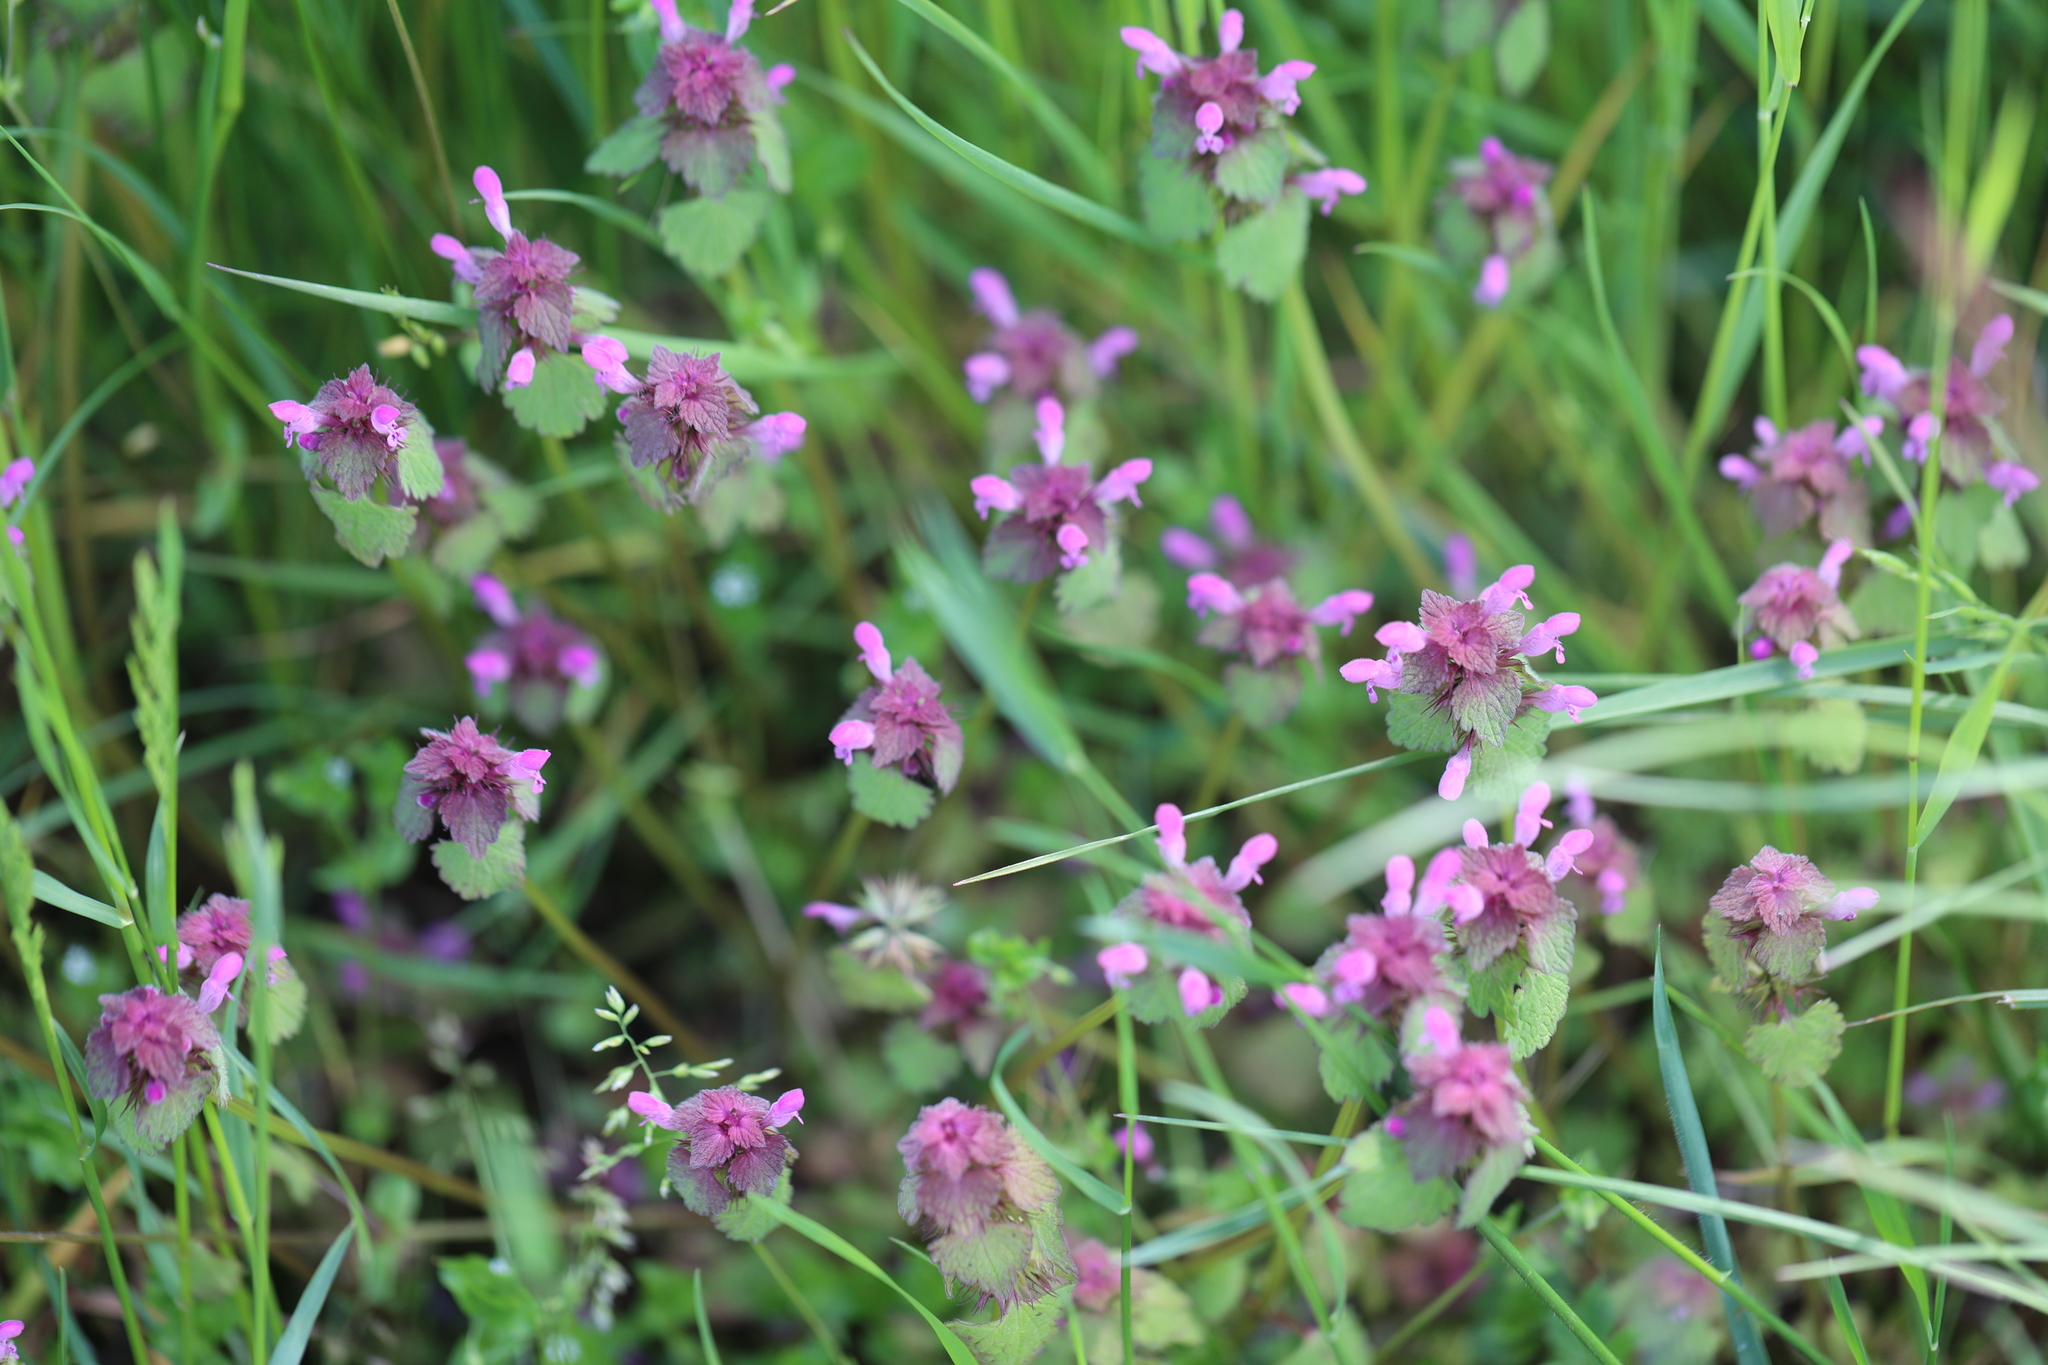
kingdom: Plantae
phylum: Tracheophyta
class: Magnoliopsida
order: Lamiales
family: Lamiaceae
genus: Lamium
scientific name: Lamium purpureum
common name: Red dead-nettle
